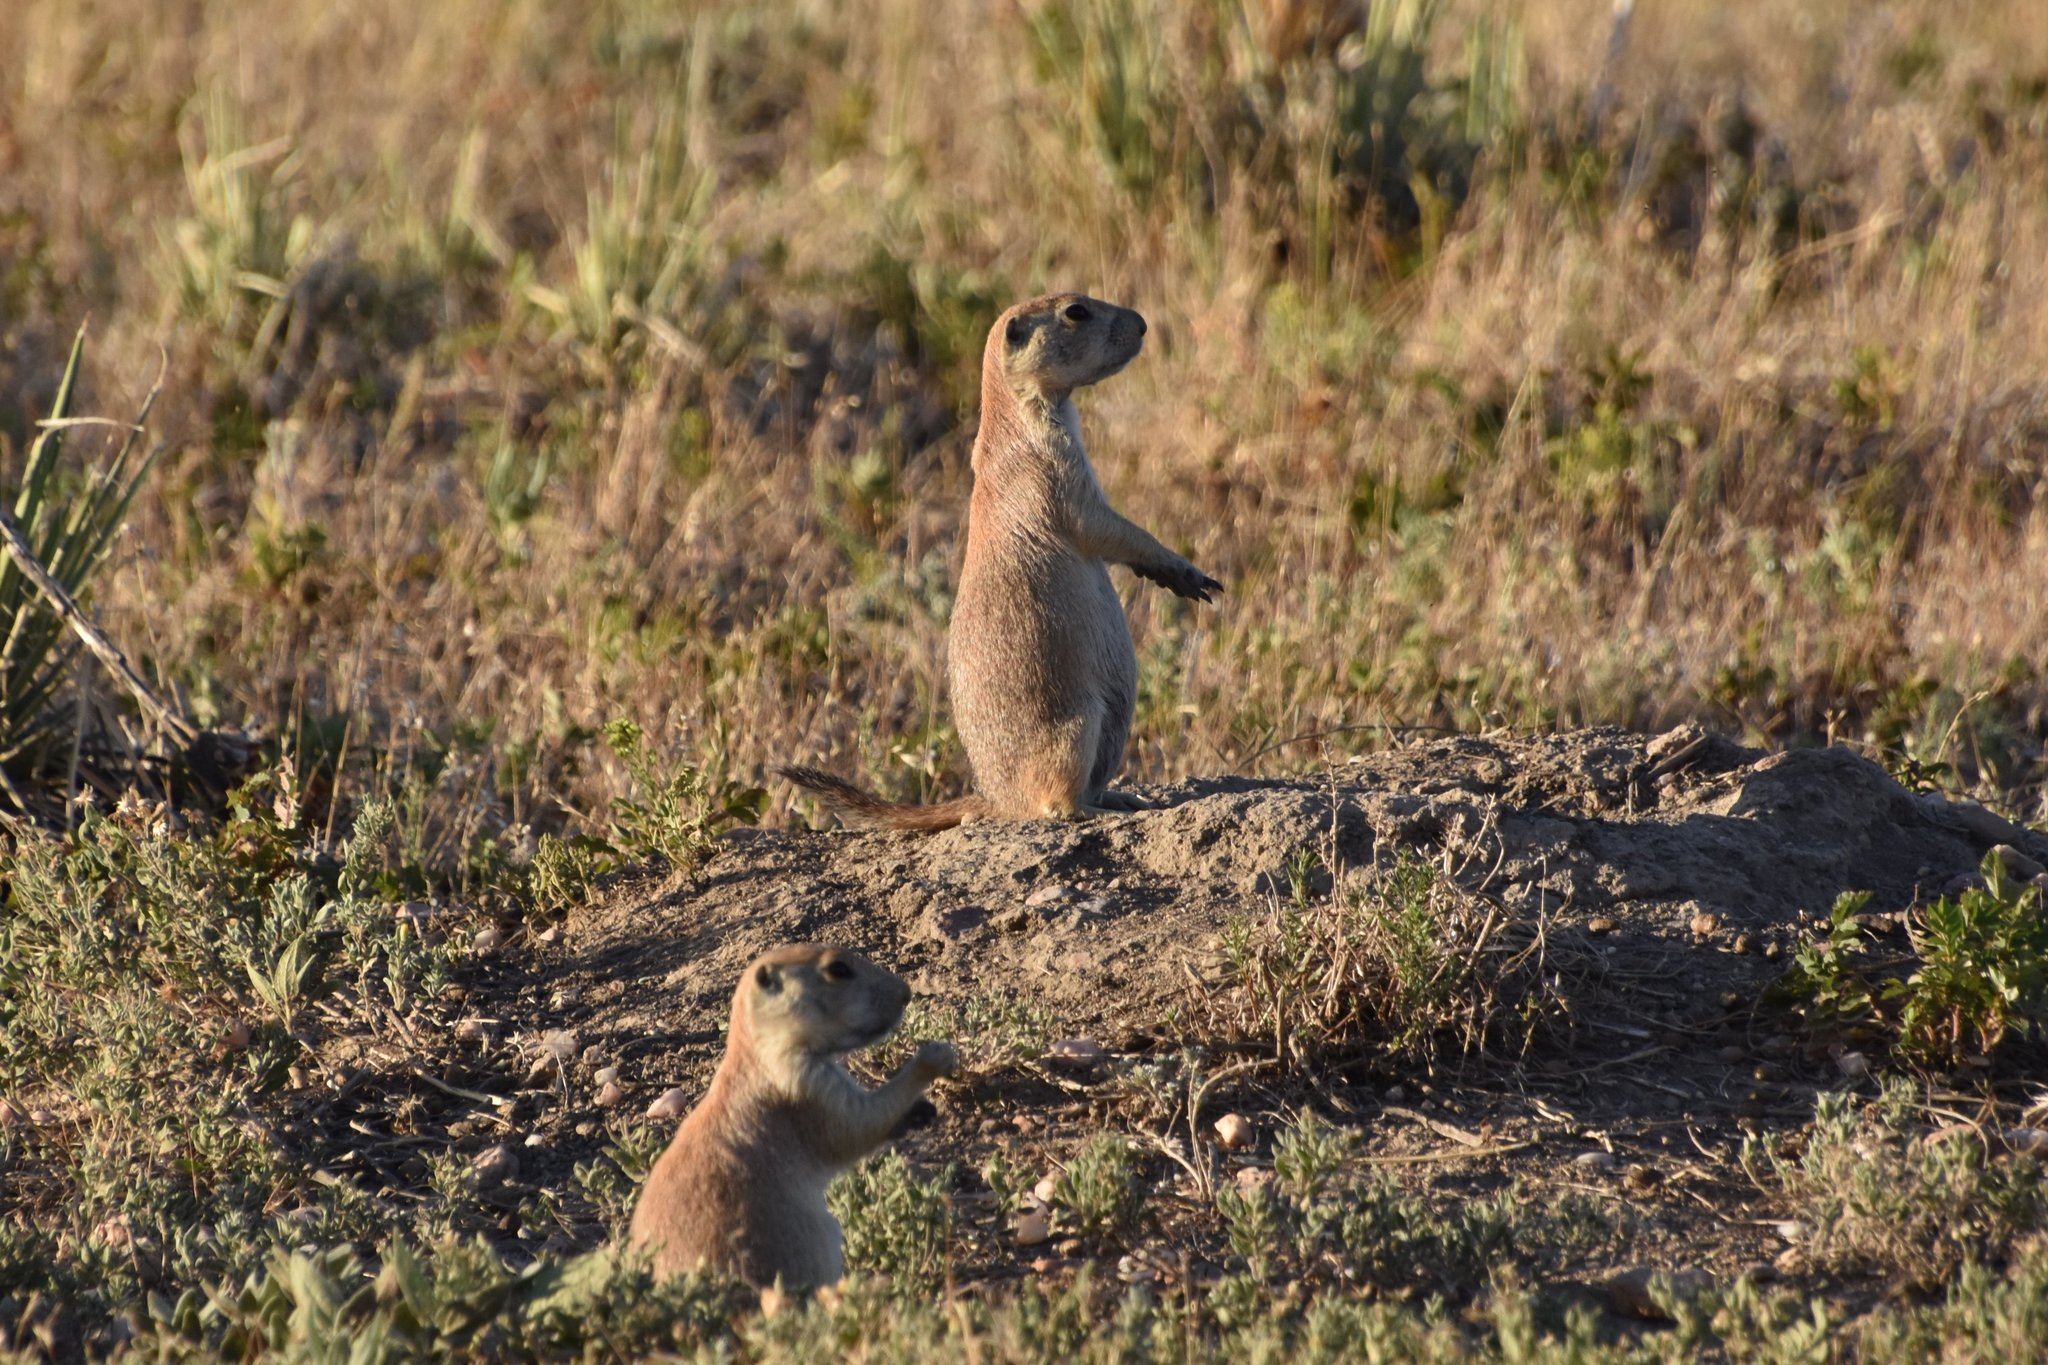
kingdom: Animalia
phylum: Chordata
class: Mammalia
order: Rodentia
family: Sciuridae
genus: Cynomys
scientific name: Cynomys ludovicianus
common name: Black-tailed prairie dog
